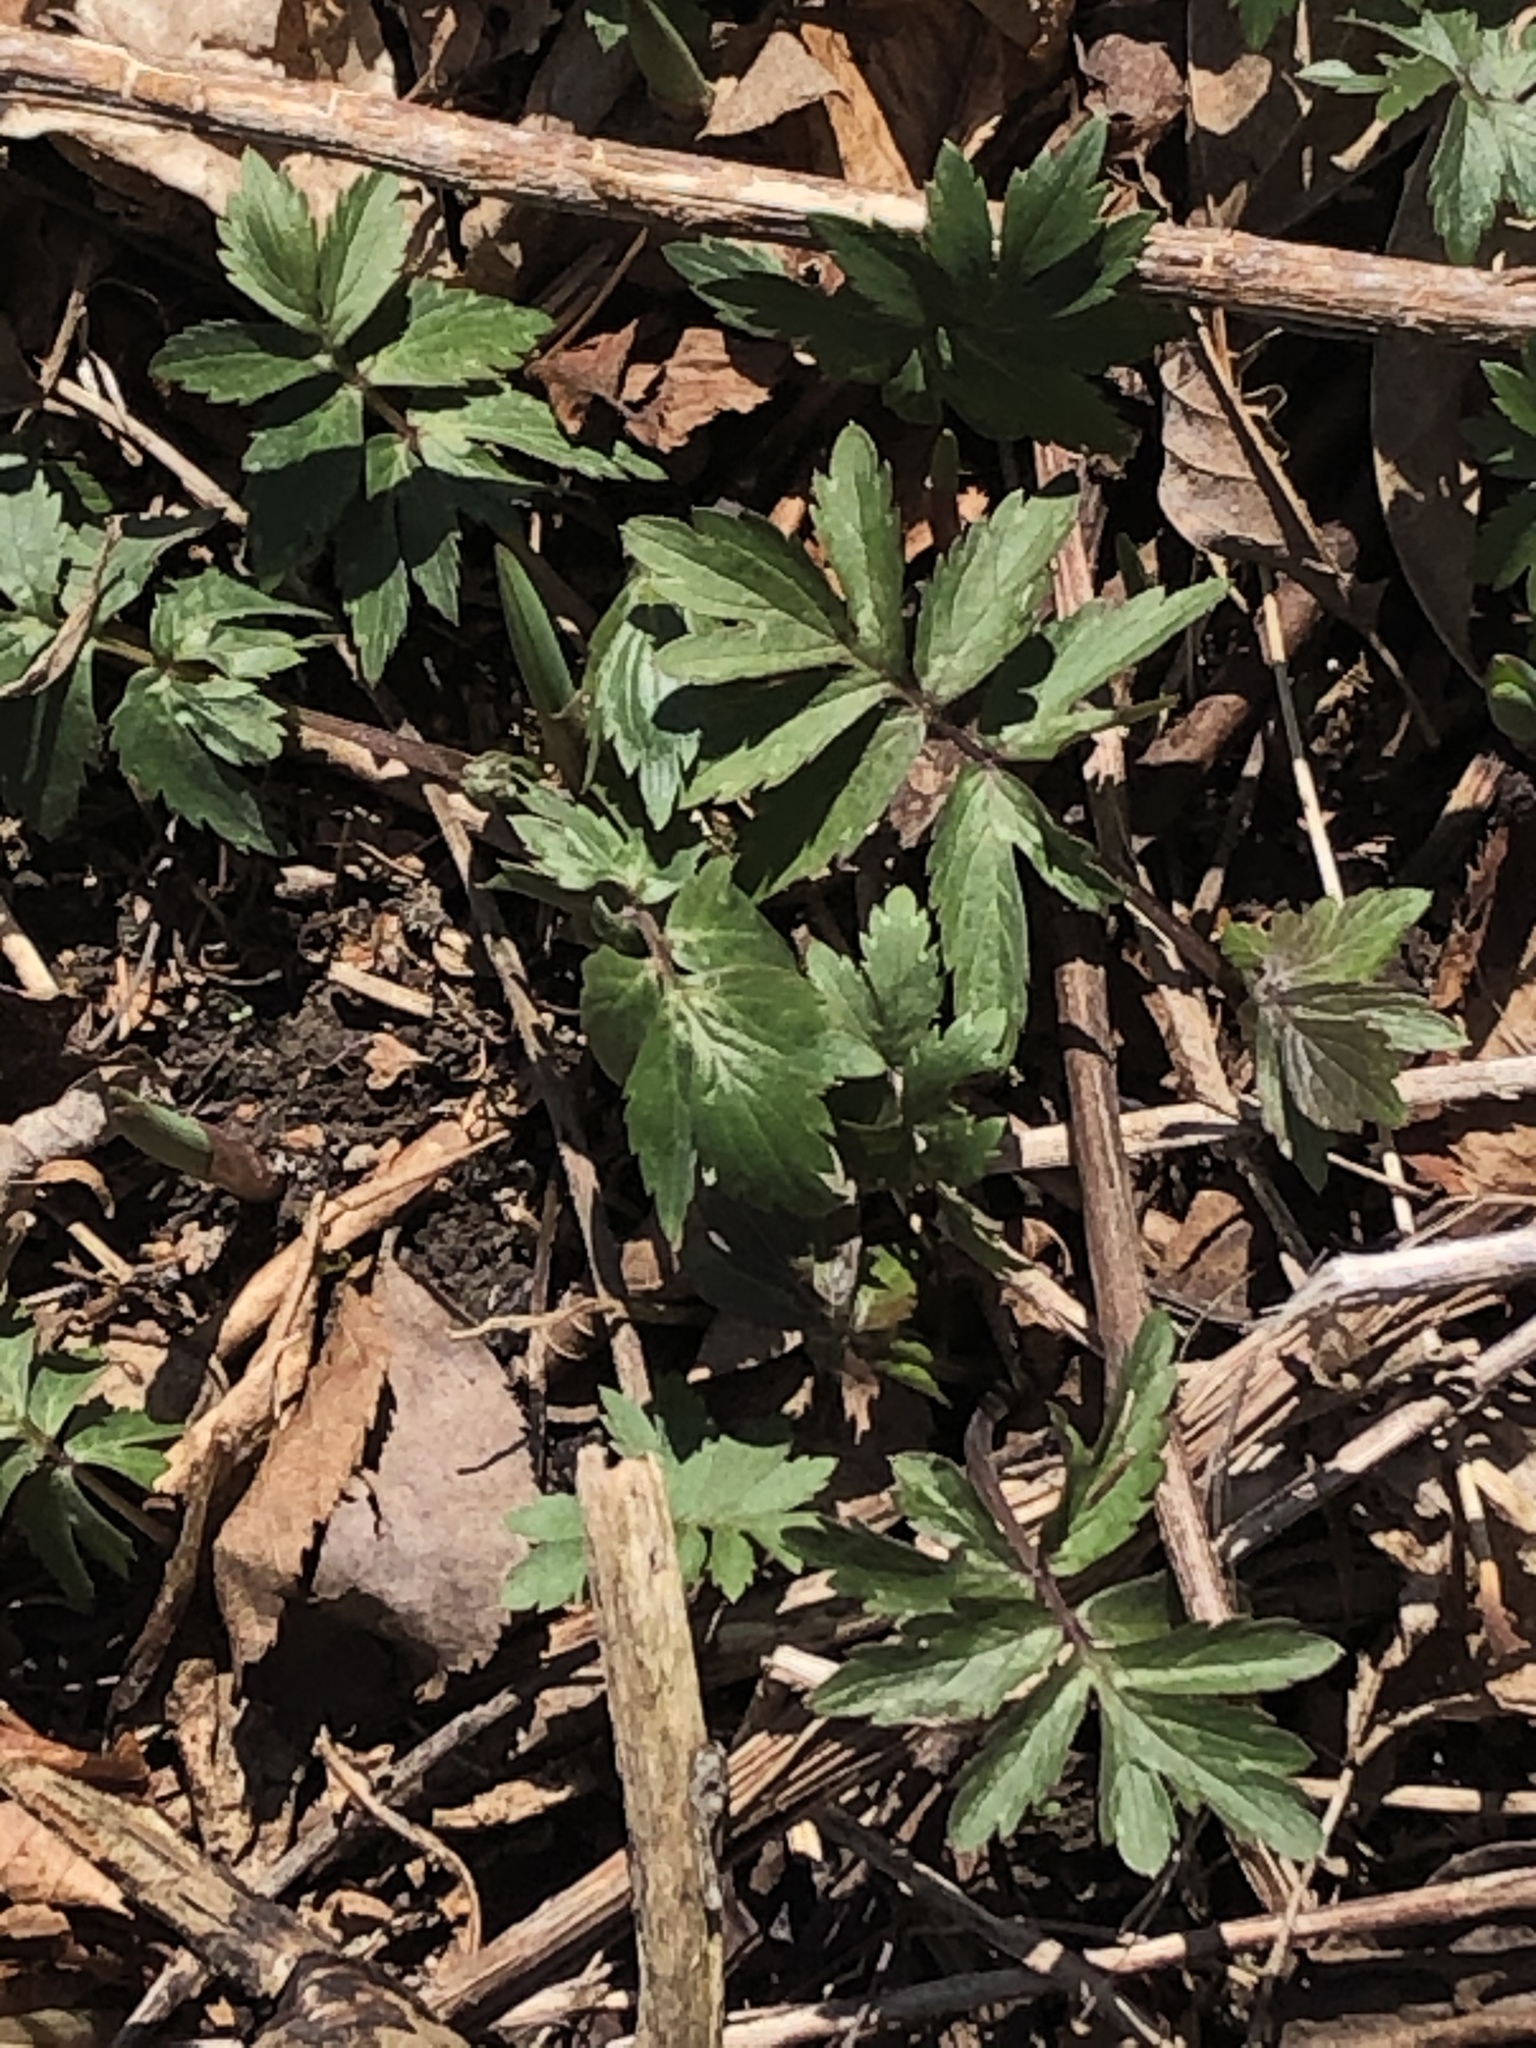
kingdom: Plantae
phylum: Tracheophyta
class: Magnoliopsida
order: Boraginales
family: Hydrophyllaceae
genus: Hydrophyllum
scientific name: Hydrophyllum virginianum
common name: Virginia waterleaf
